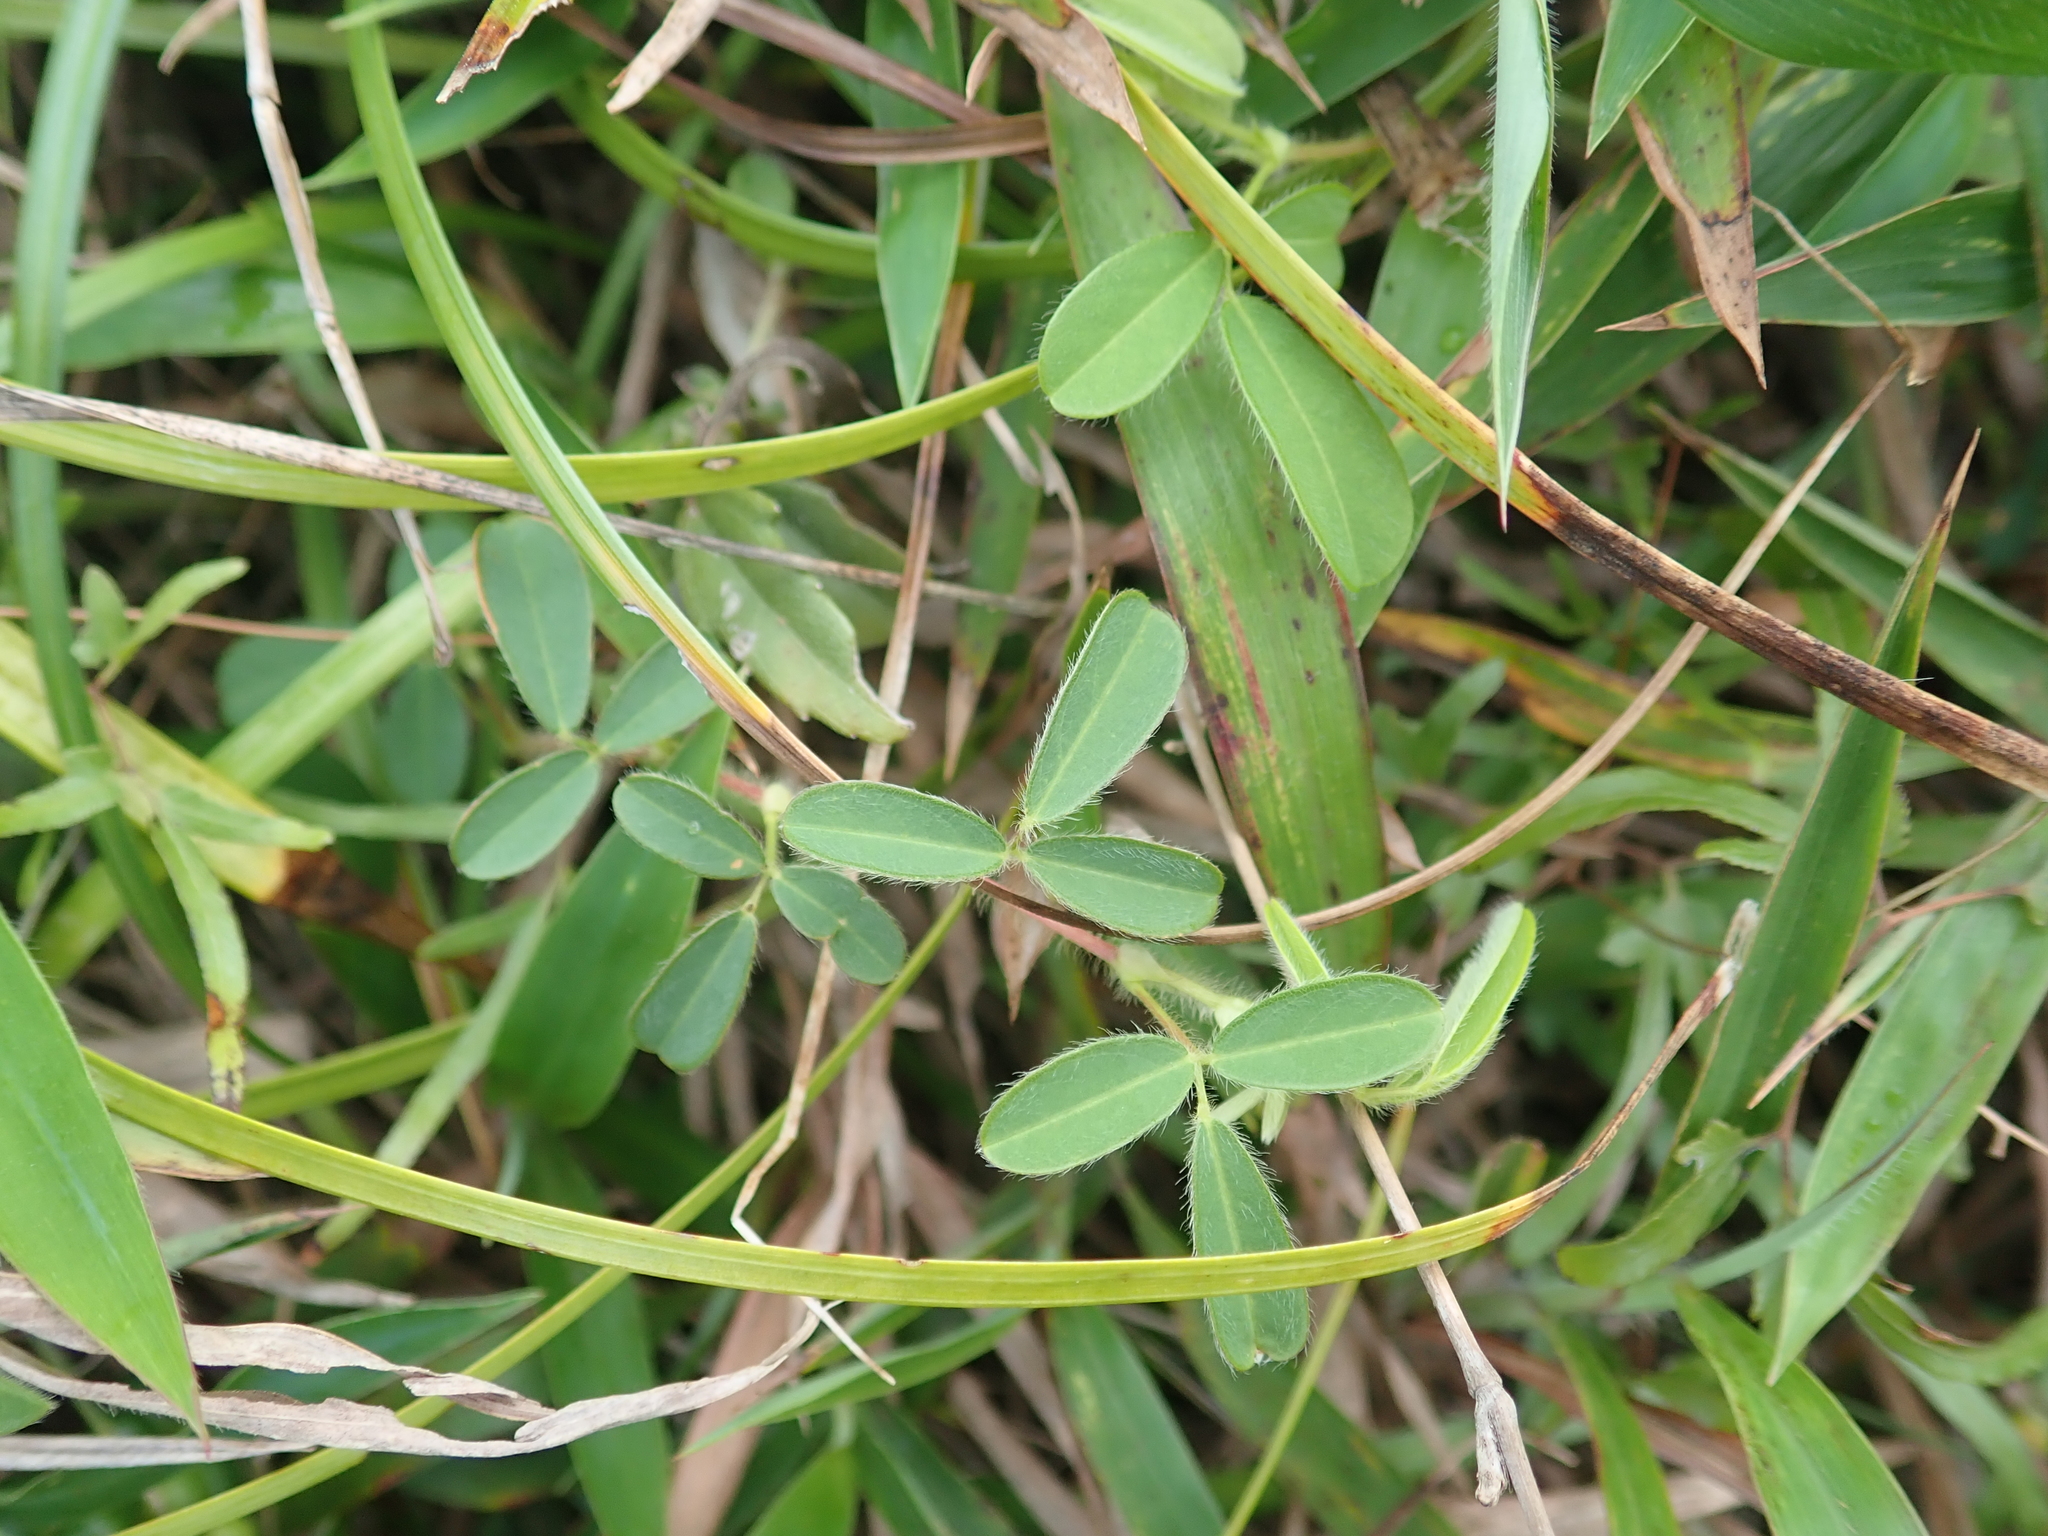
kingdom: Plantae
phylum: Tracheophyta
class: Magnoliopsida
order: Fabales
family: Fabaceae
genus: Grona
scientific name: Grona heterophylla
